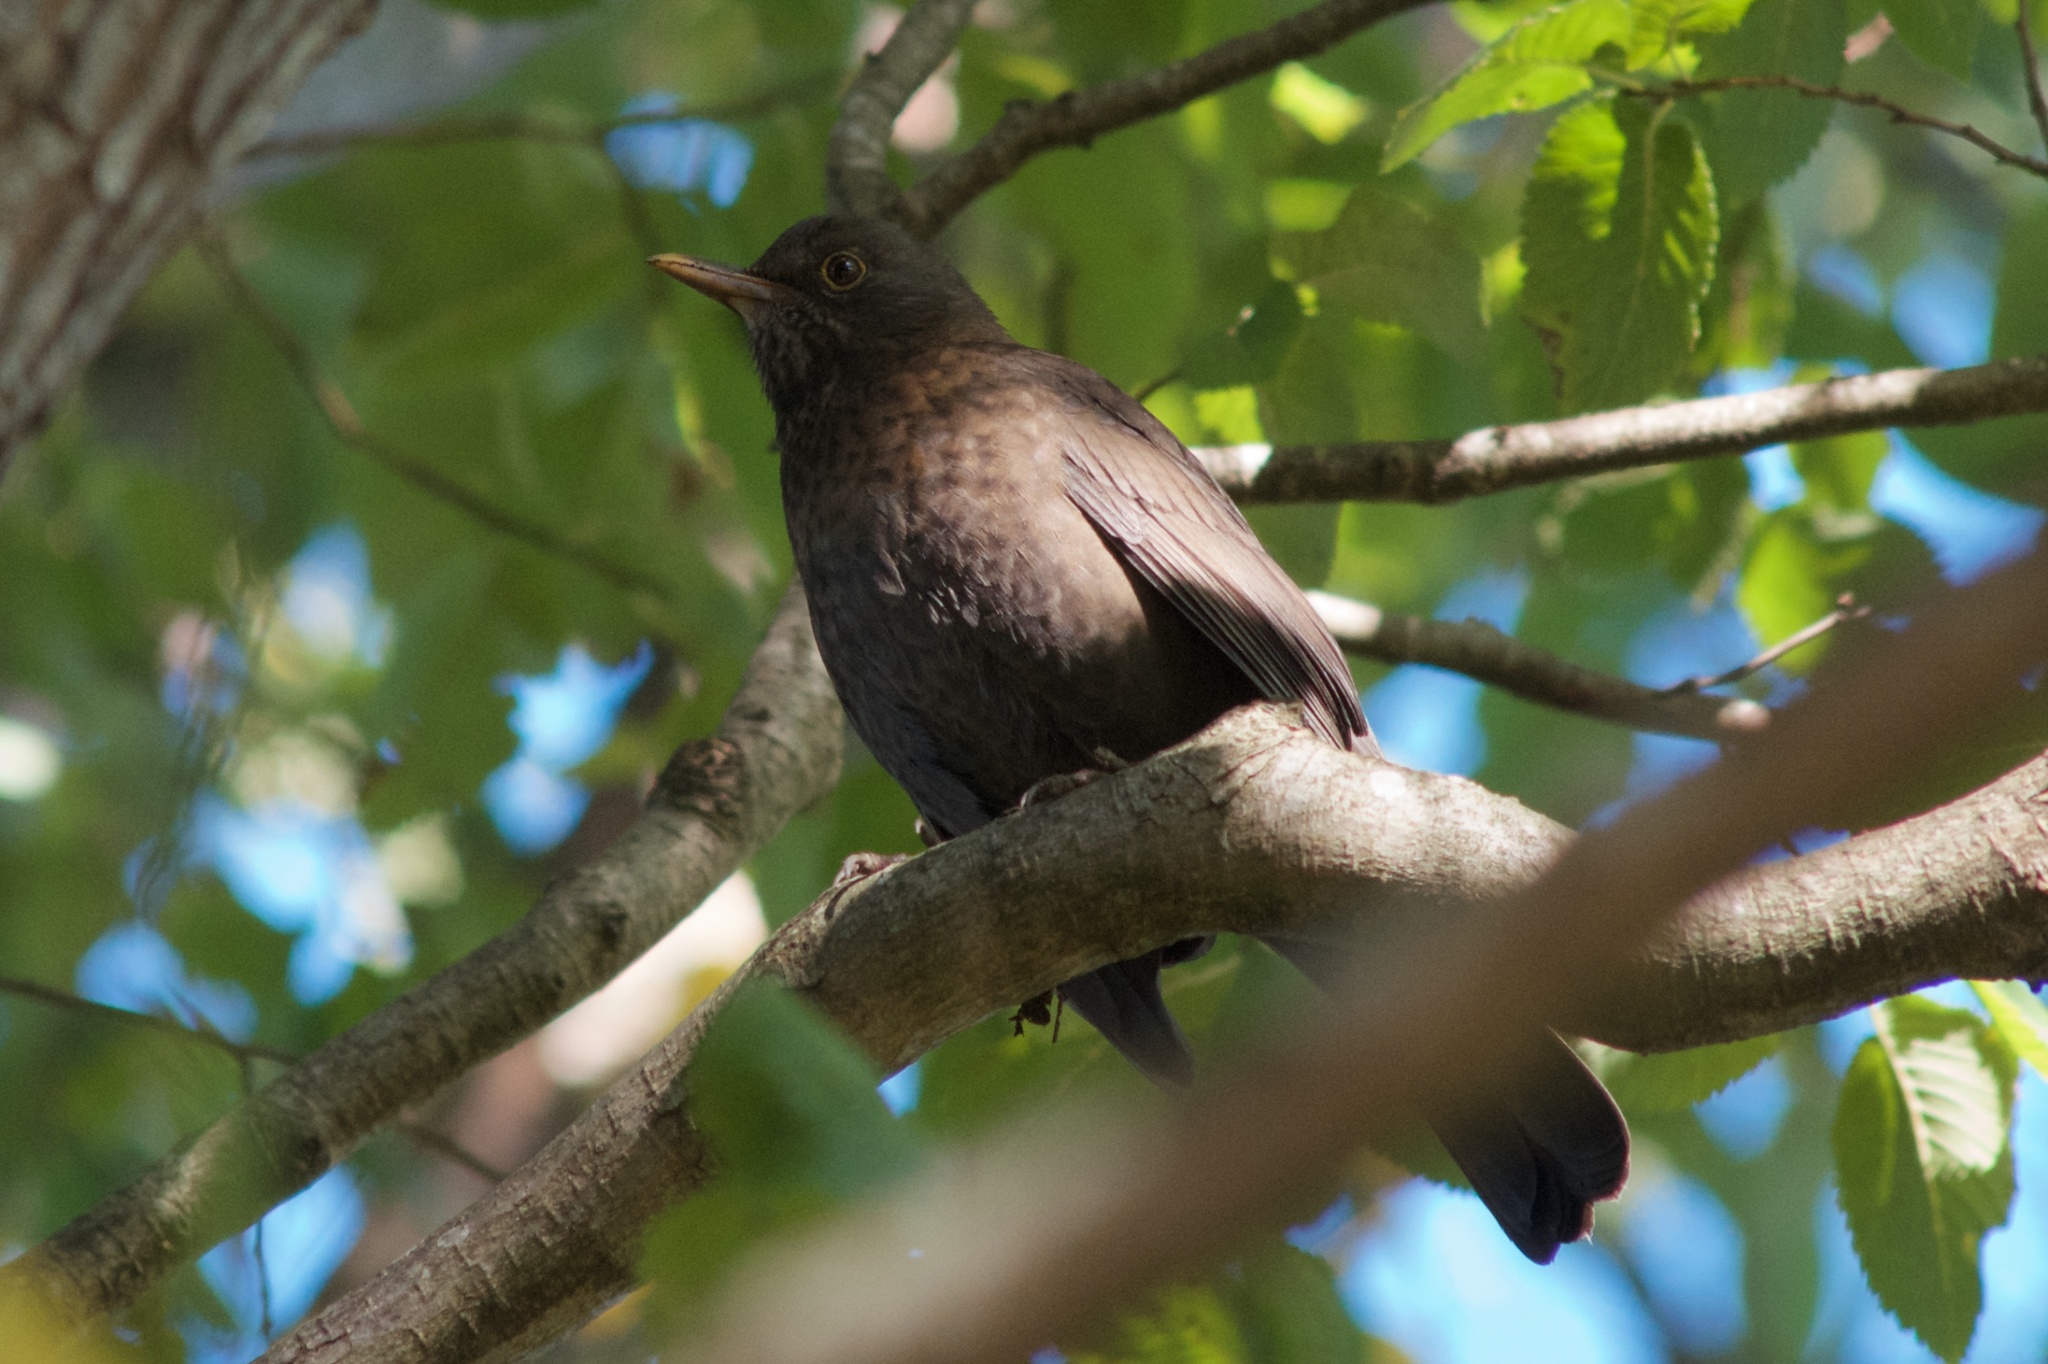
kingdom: Animalia
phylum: Chordata
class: Aves
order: Passeriformes
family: Turdidae
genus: Turdus
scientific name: Turdus merula
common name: Common blackbird
